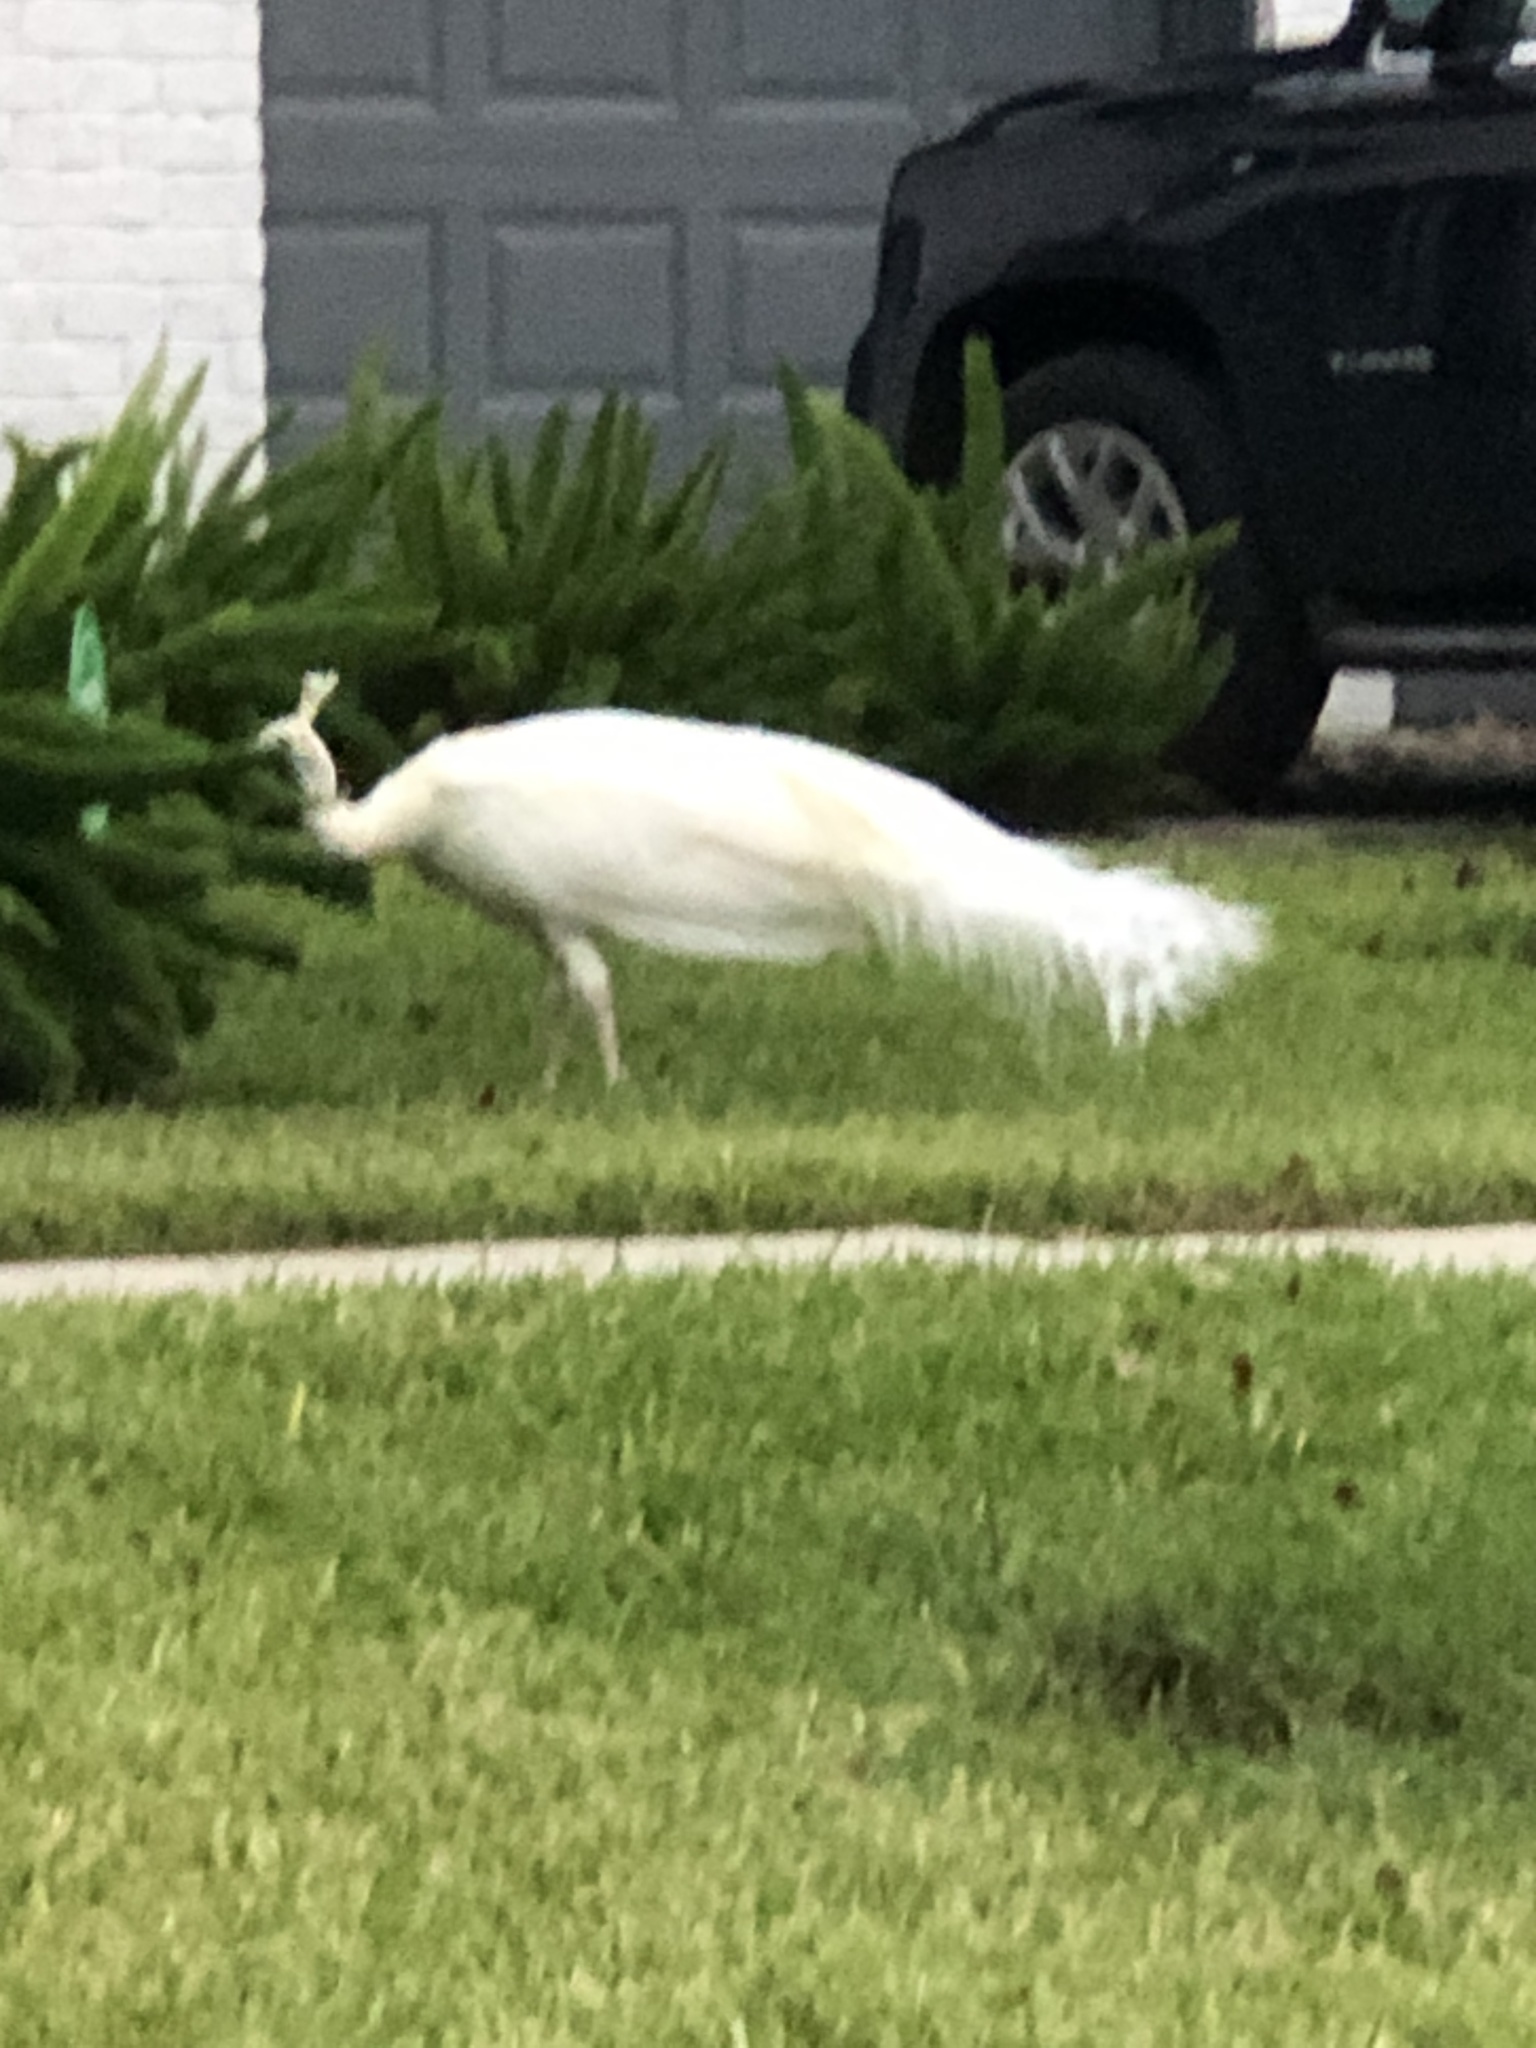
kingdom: Animalia
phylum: Chordata
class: Aves
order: Galliformes
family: Phasianidae
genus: Pavo
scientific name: Pavo cristatus
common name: Indian peafowl
